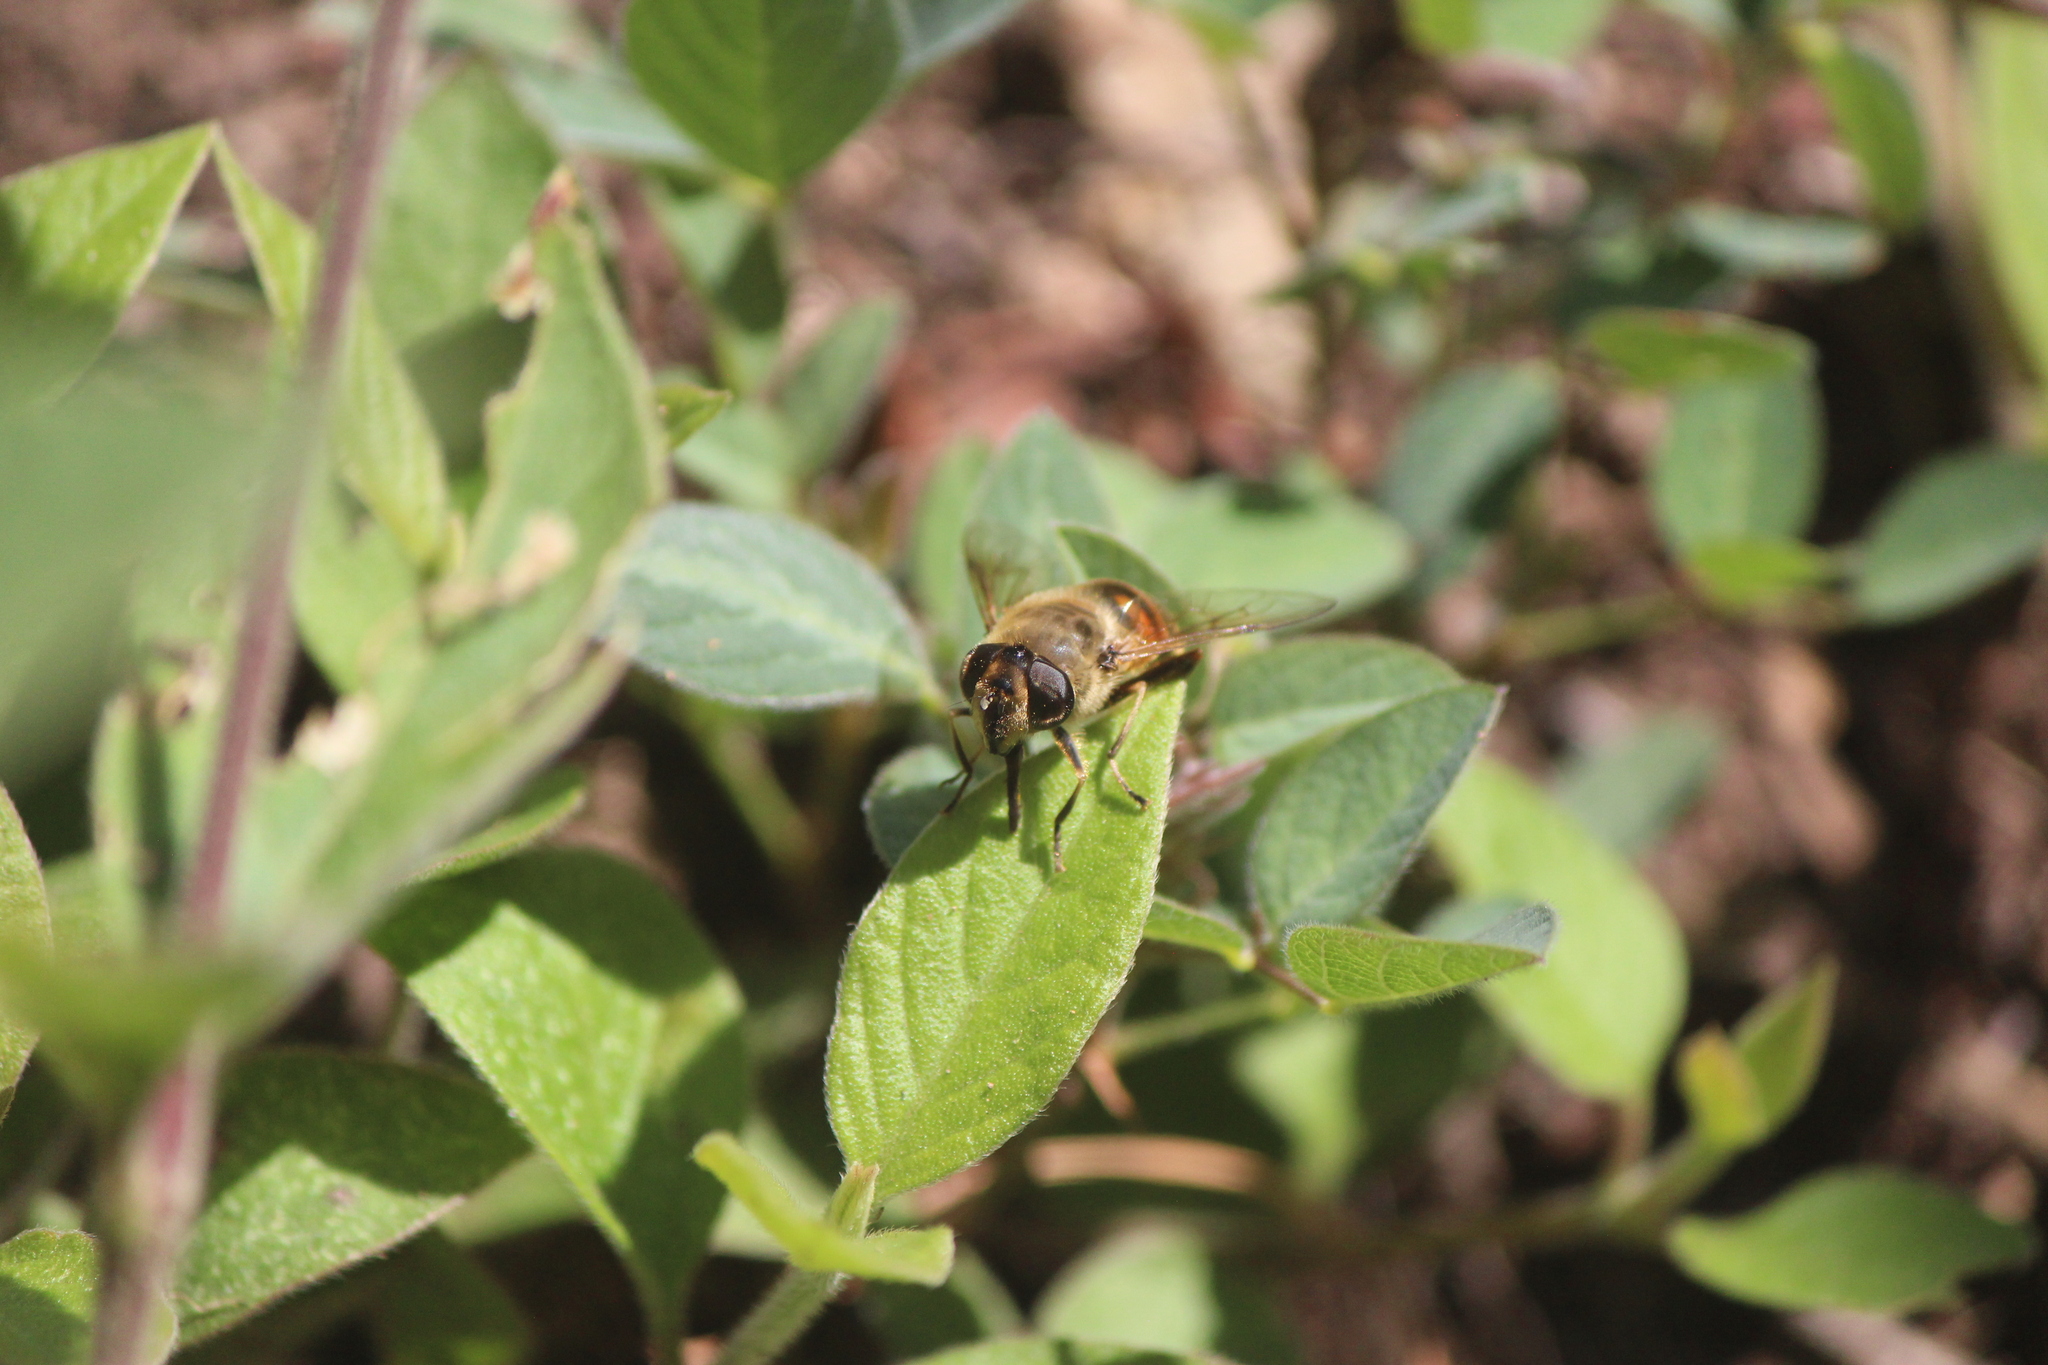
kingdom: Animalia
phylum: Arthropoda
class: Insecta
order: Diptera
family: Syrphidae
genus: Eristalis
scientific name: Eristalis tenax
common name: Drone fly
